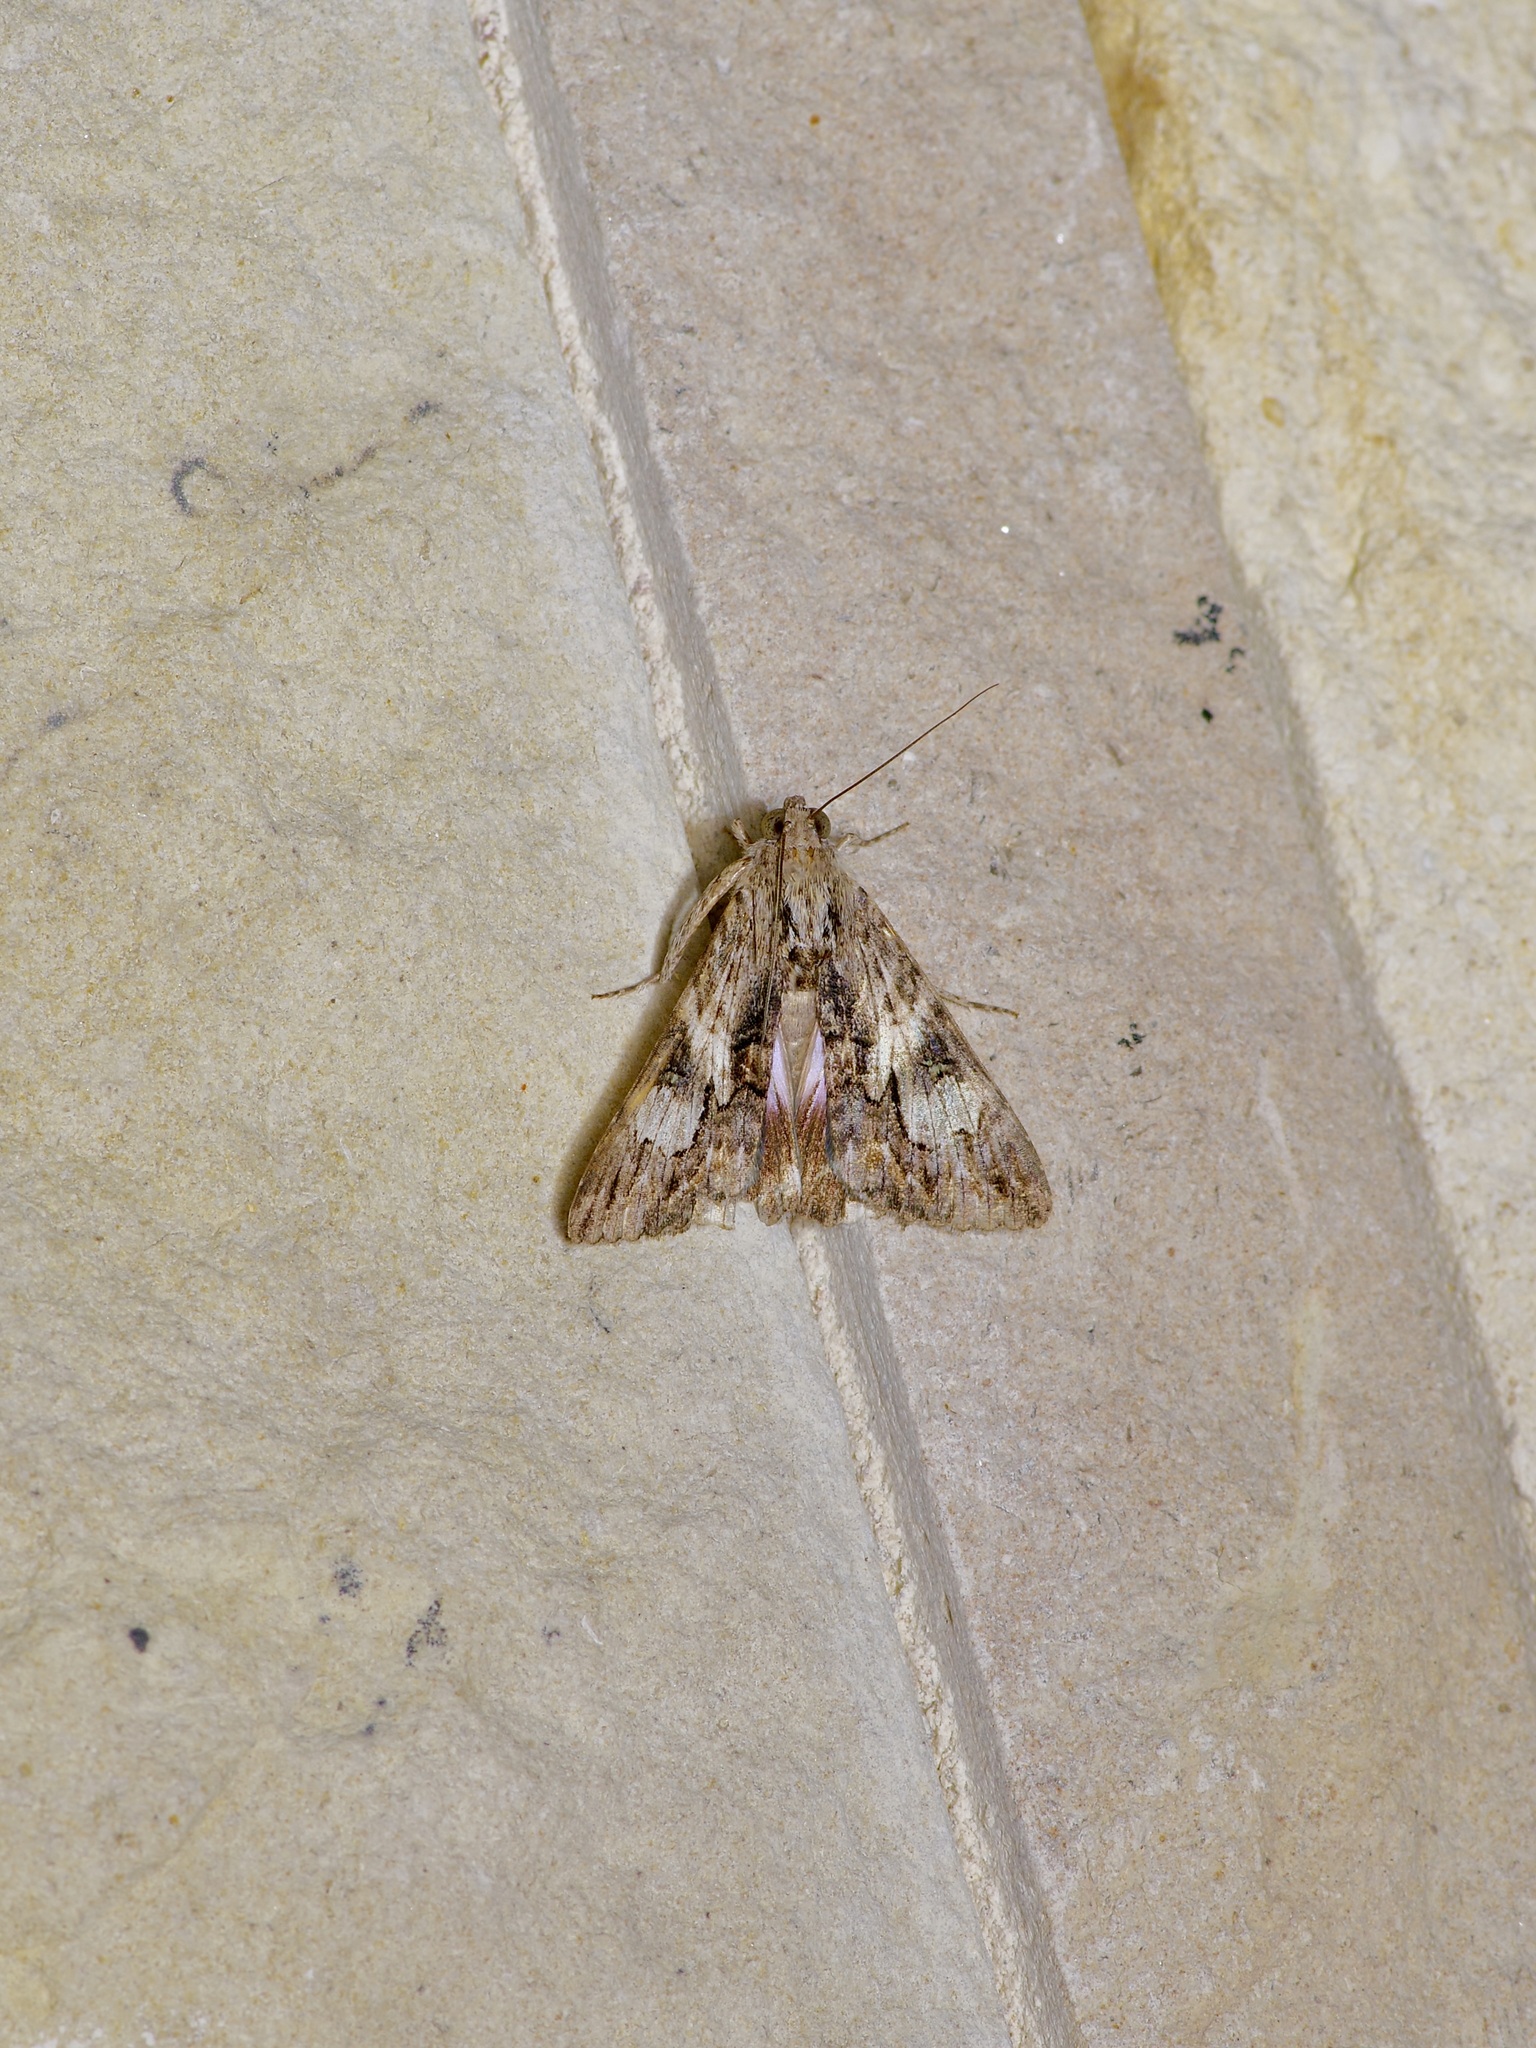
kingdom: Animalia
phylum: Arthropoda
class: Insecta
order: Lepidoptera
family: Erebidae
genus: Melipotis
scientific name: Melipotis jucunda
